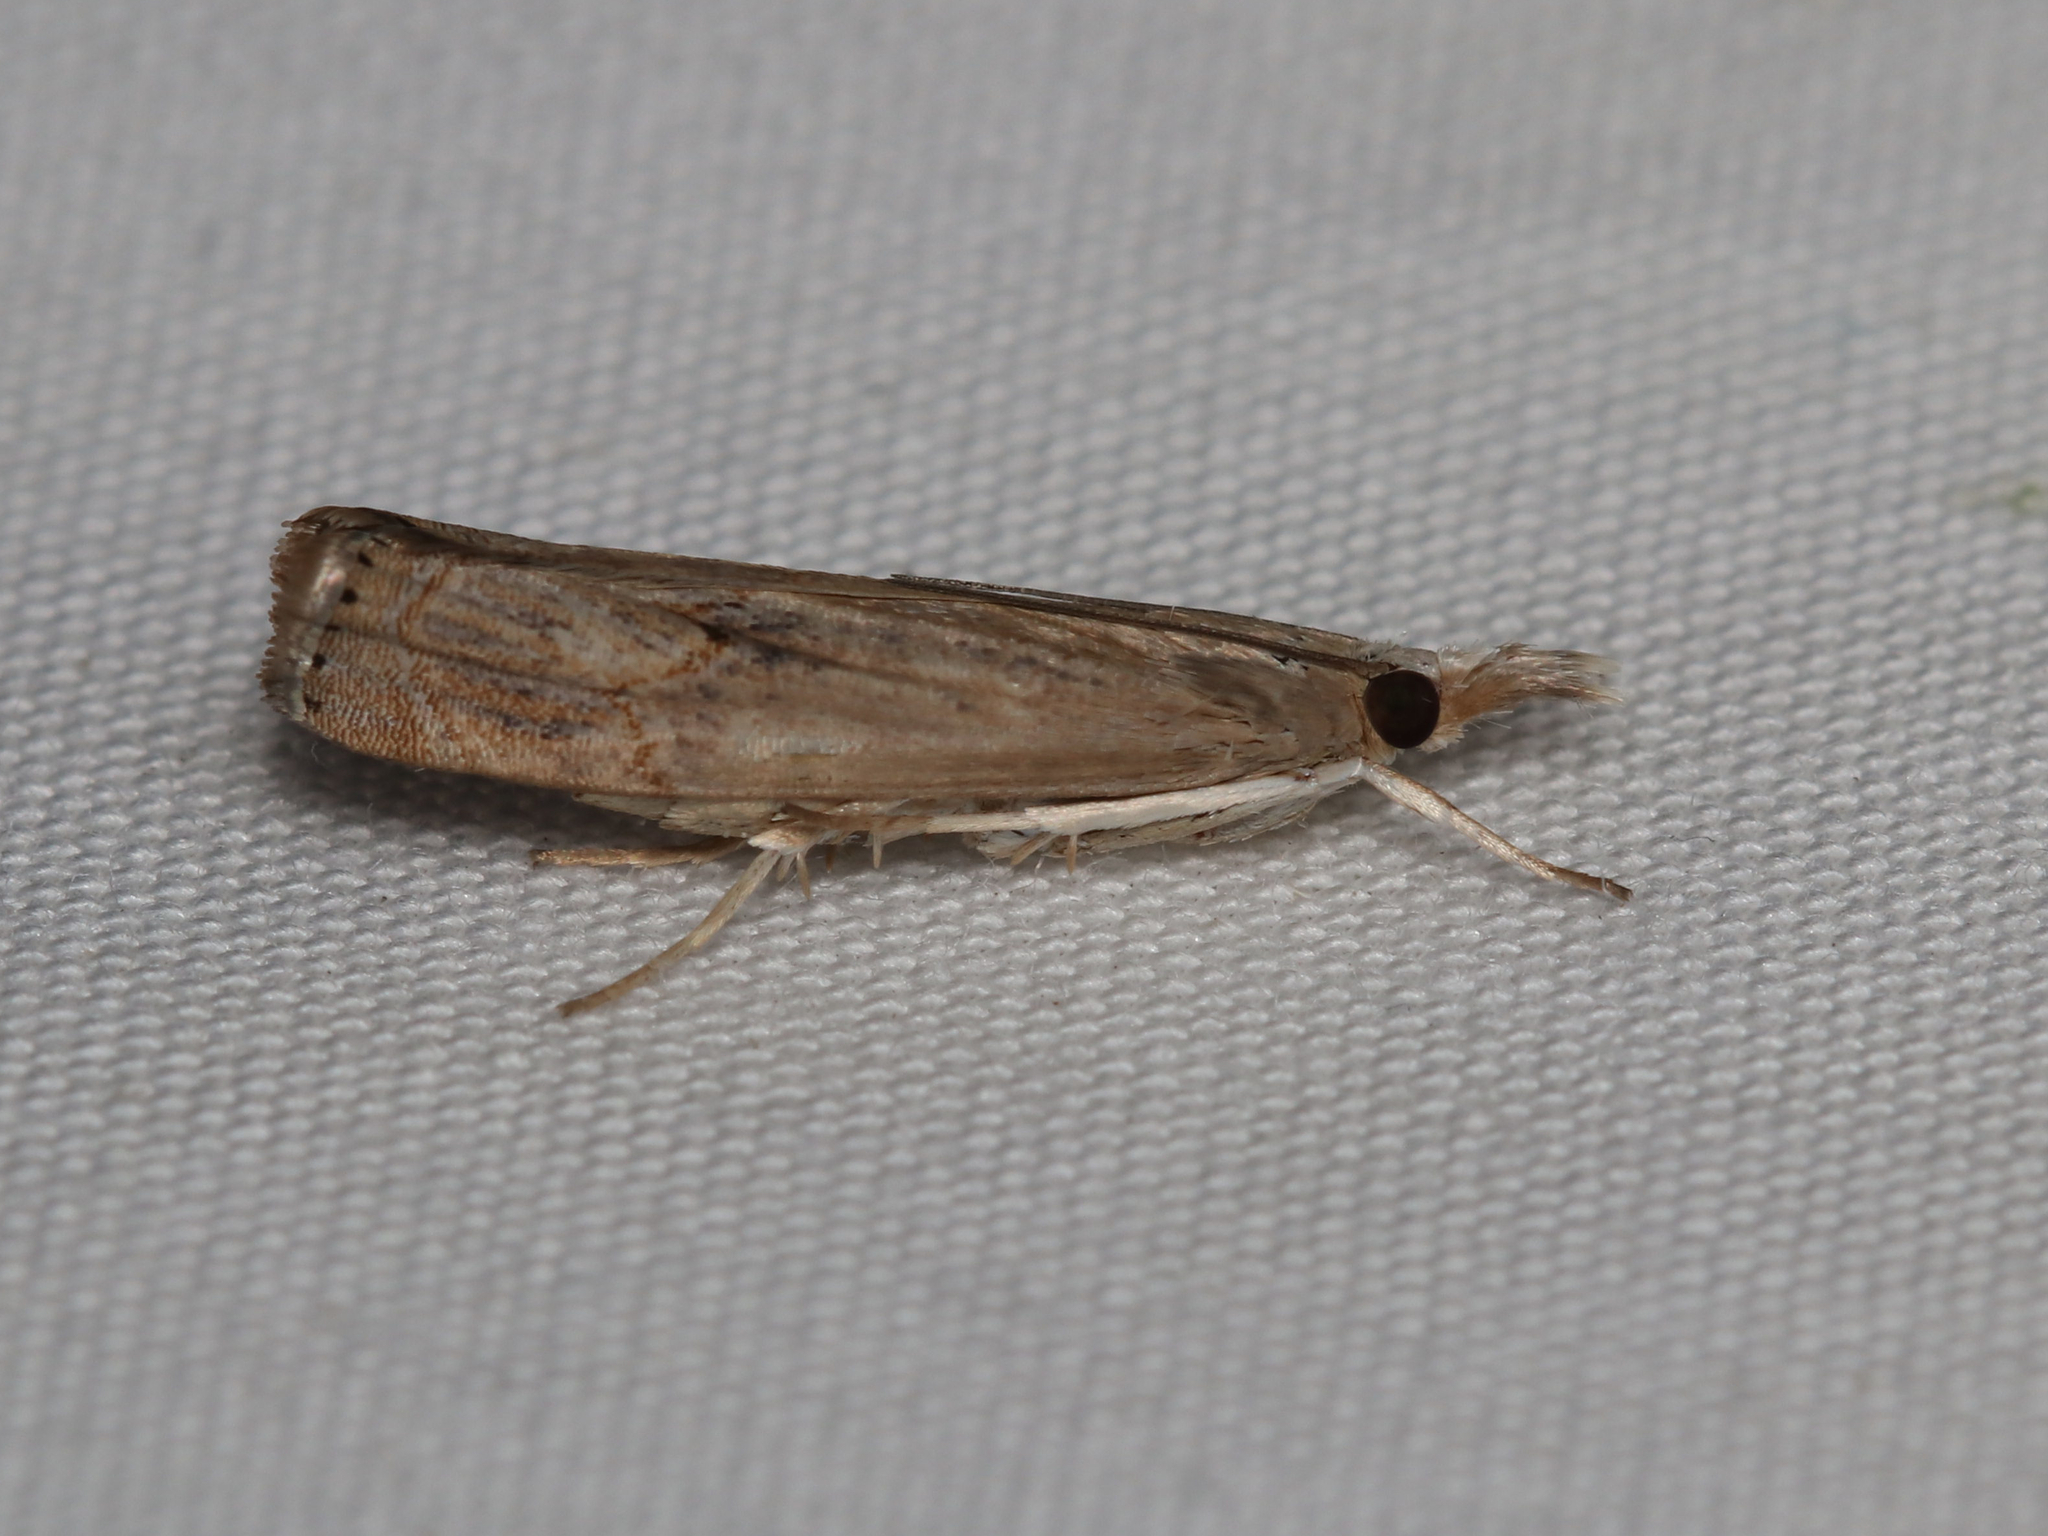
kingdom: Animalia
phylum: Arthropoda
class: Insecta
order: Lepidoptera
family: Crambidae
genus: Parapediasia
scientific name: Parapediasia teterellus
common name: Bluegrass webworm moth
